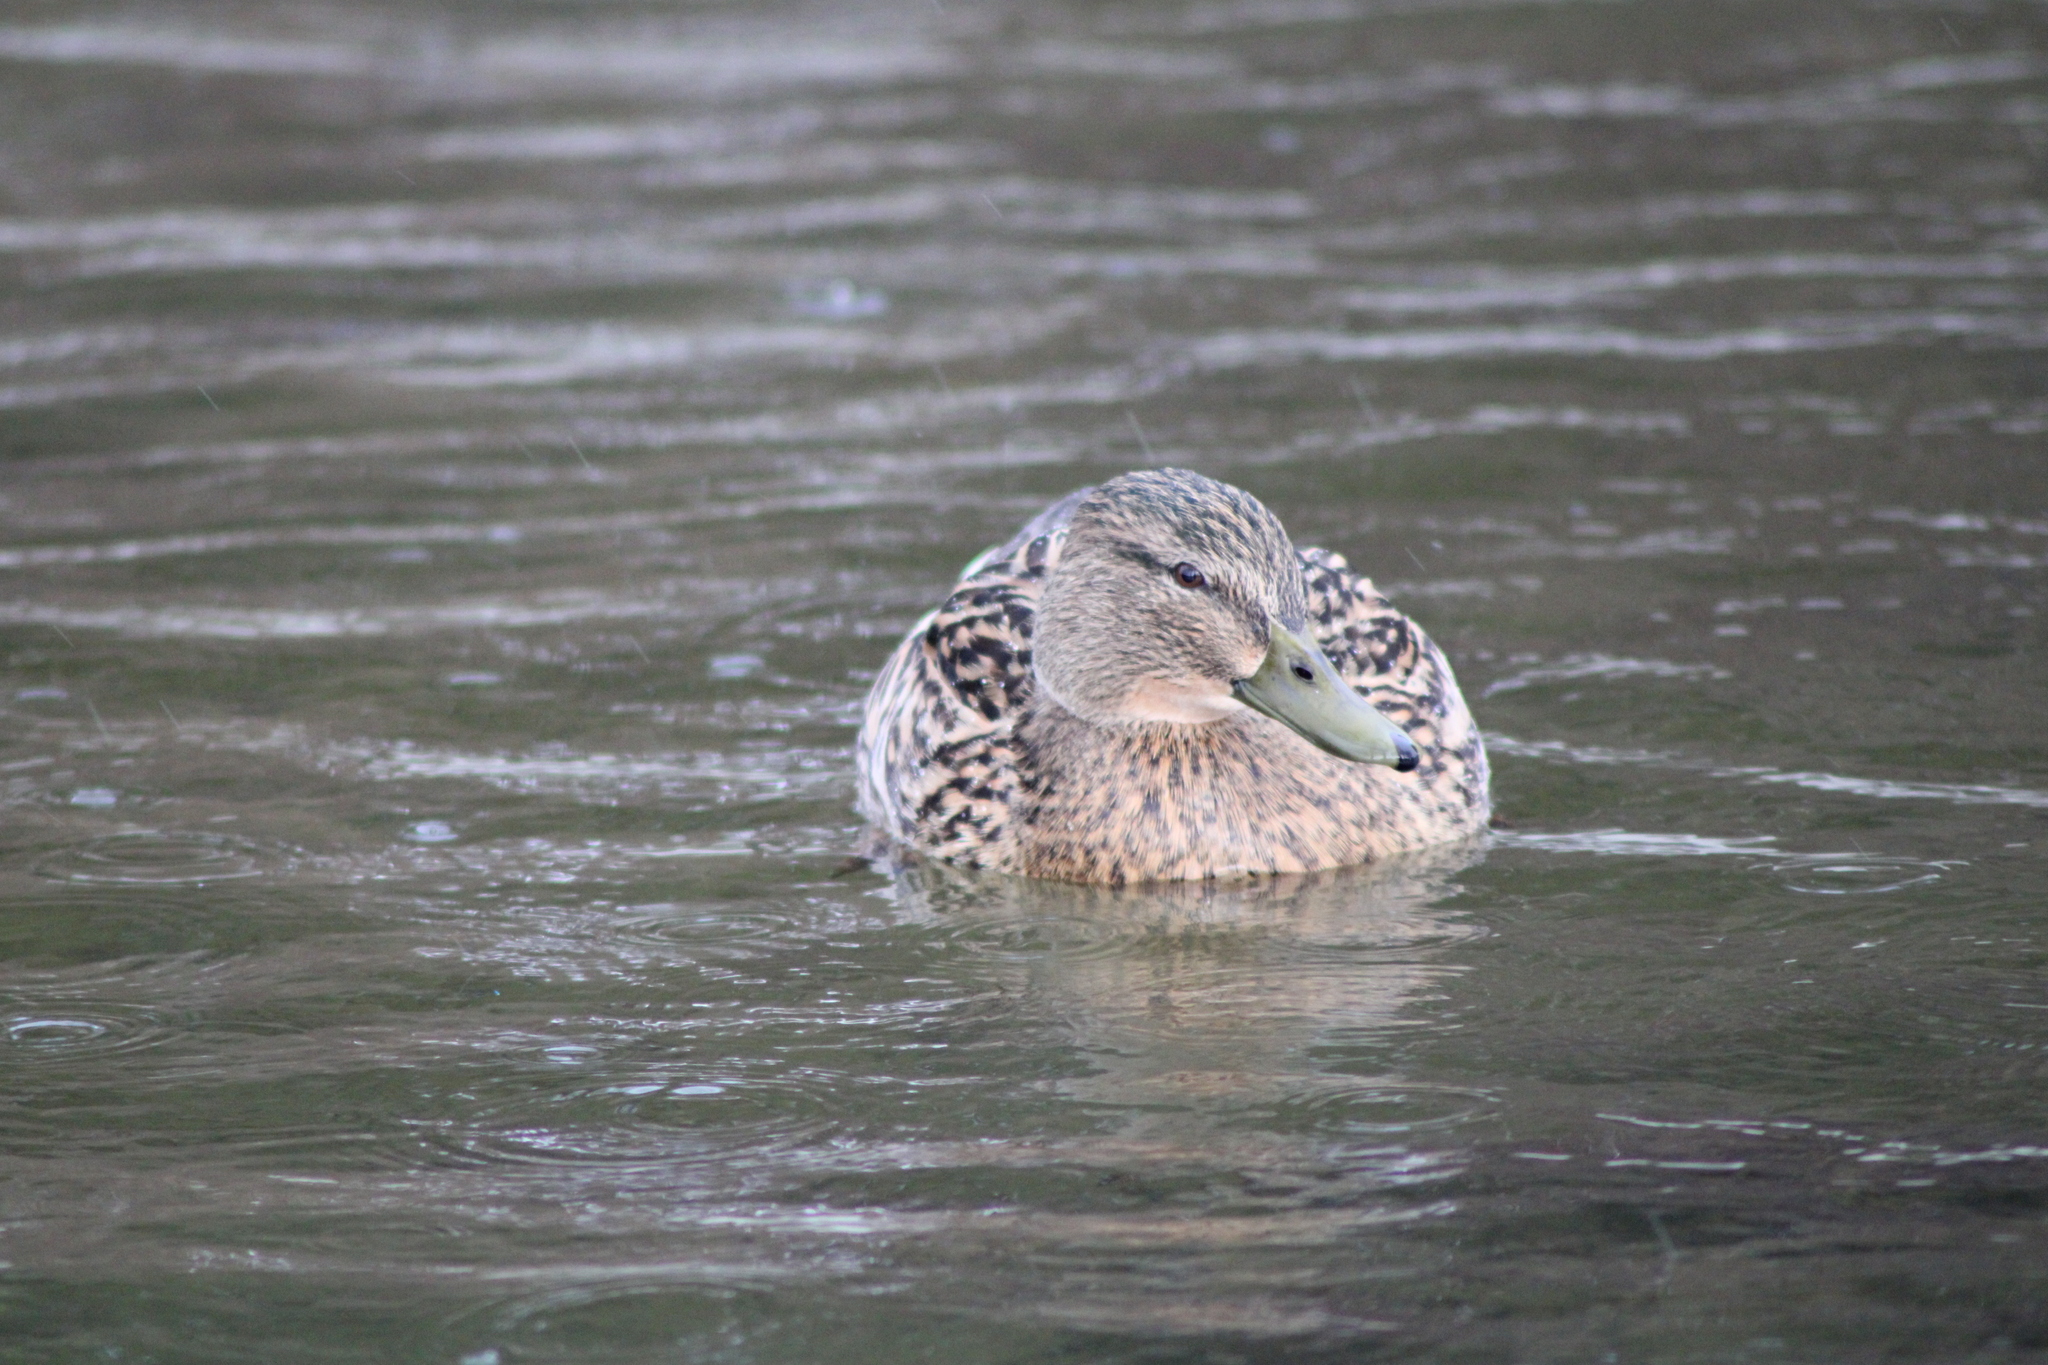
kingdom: Animalia
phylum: Chordata
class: Aves
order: Anseriformes
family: Anatidae
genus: Anas
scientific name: Anas platyrhynchos
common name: Mallard
